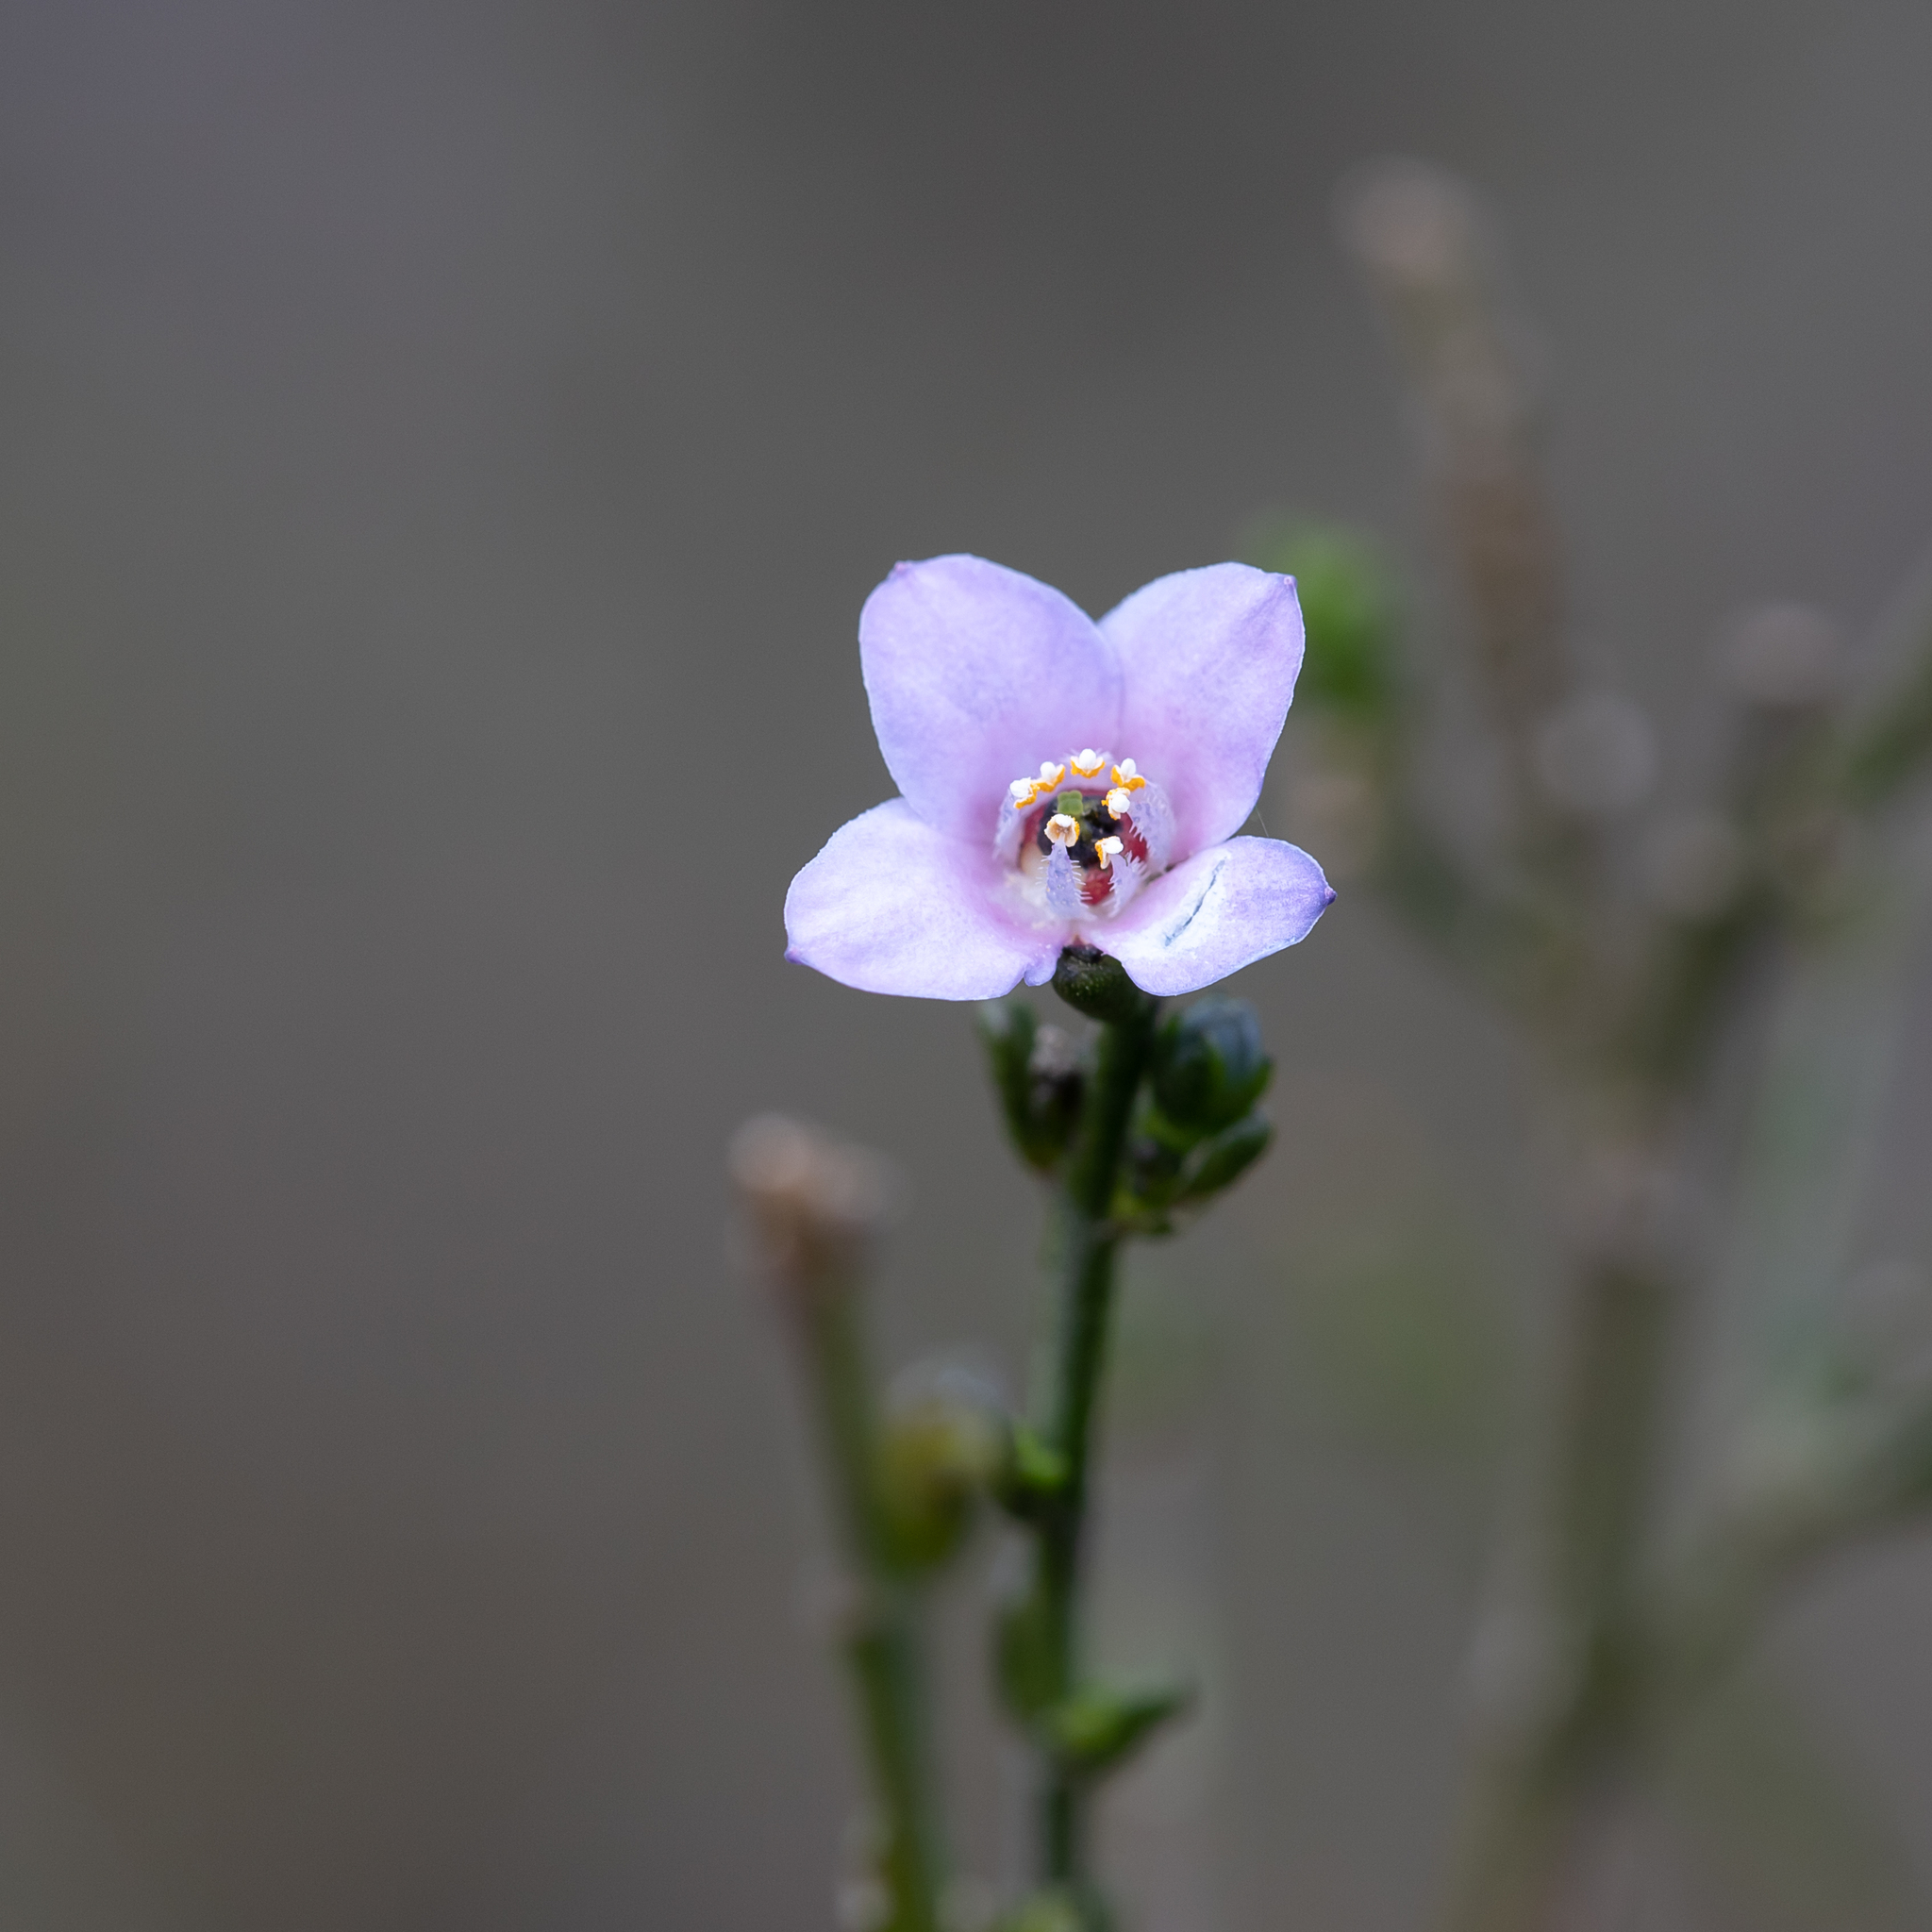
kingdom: Plantae
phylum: Tracheophyta
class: Magnoliopsida
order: Sapindales
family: Rutaceae
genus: Cyanothamnus
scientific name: Cyanothamnus coerulescens
